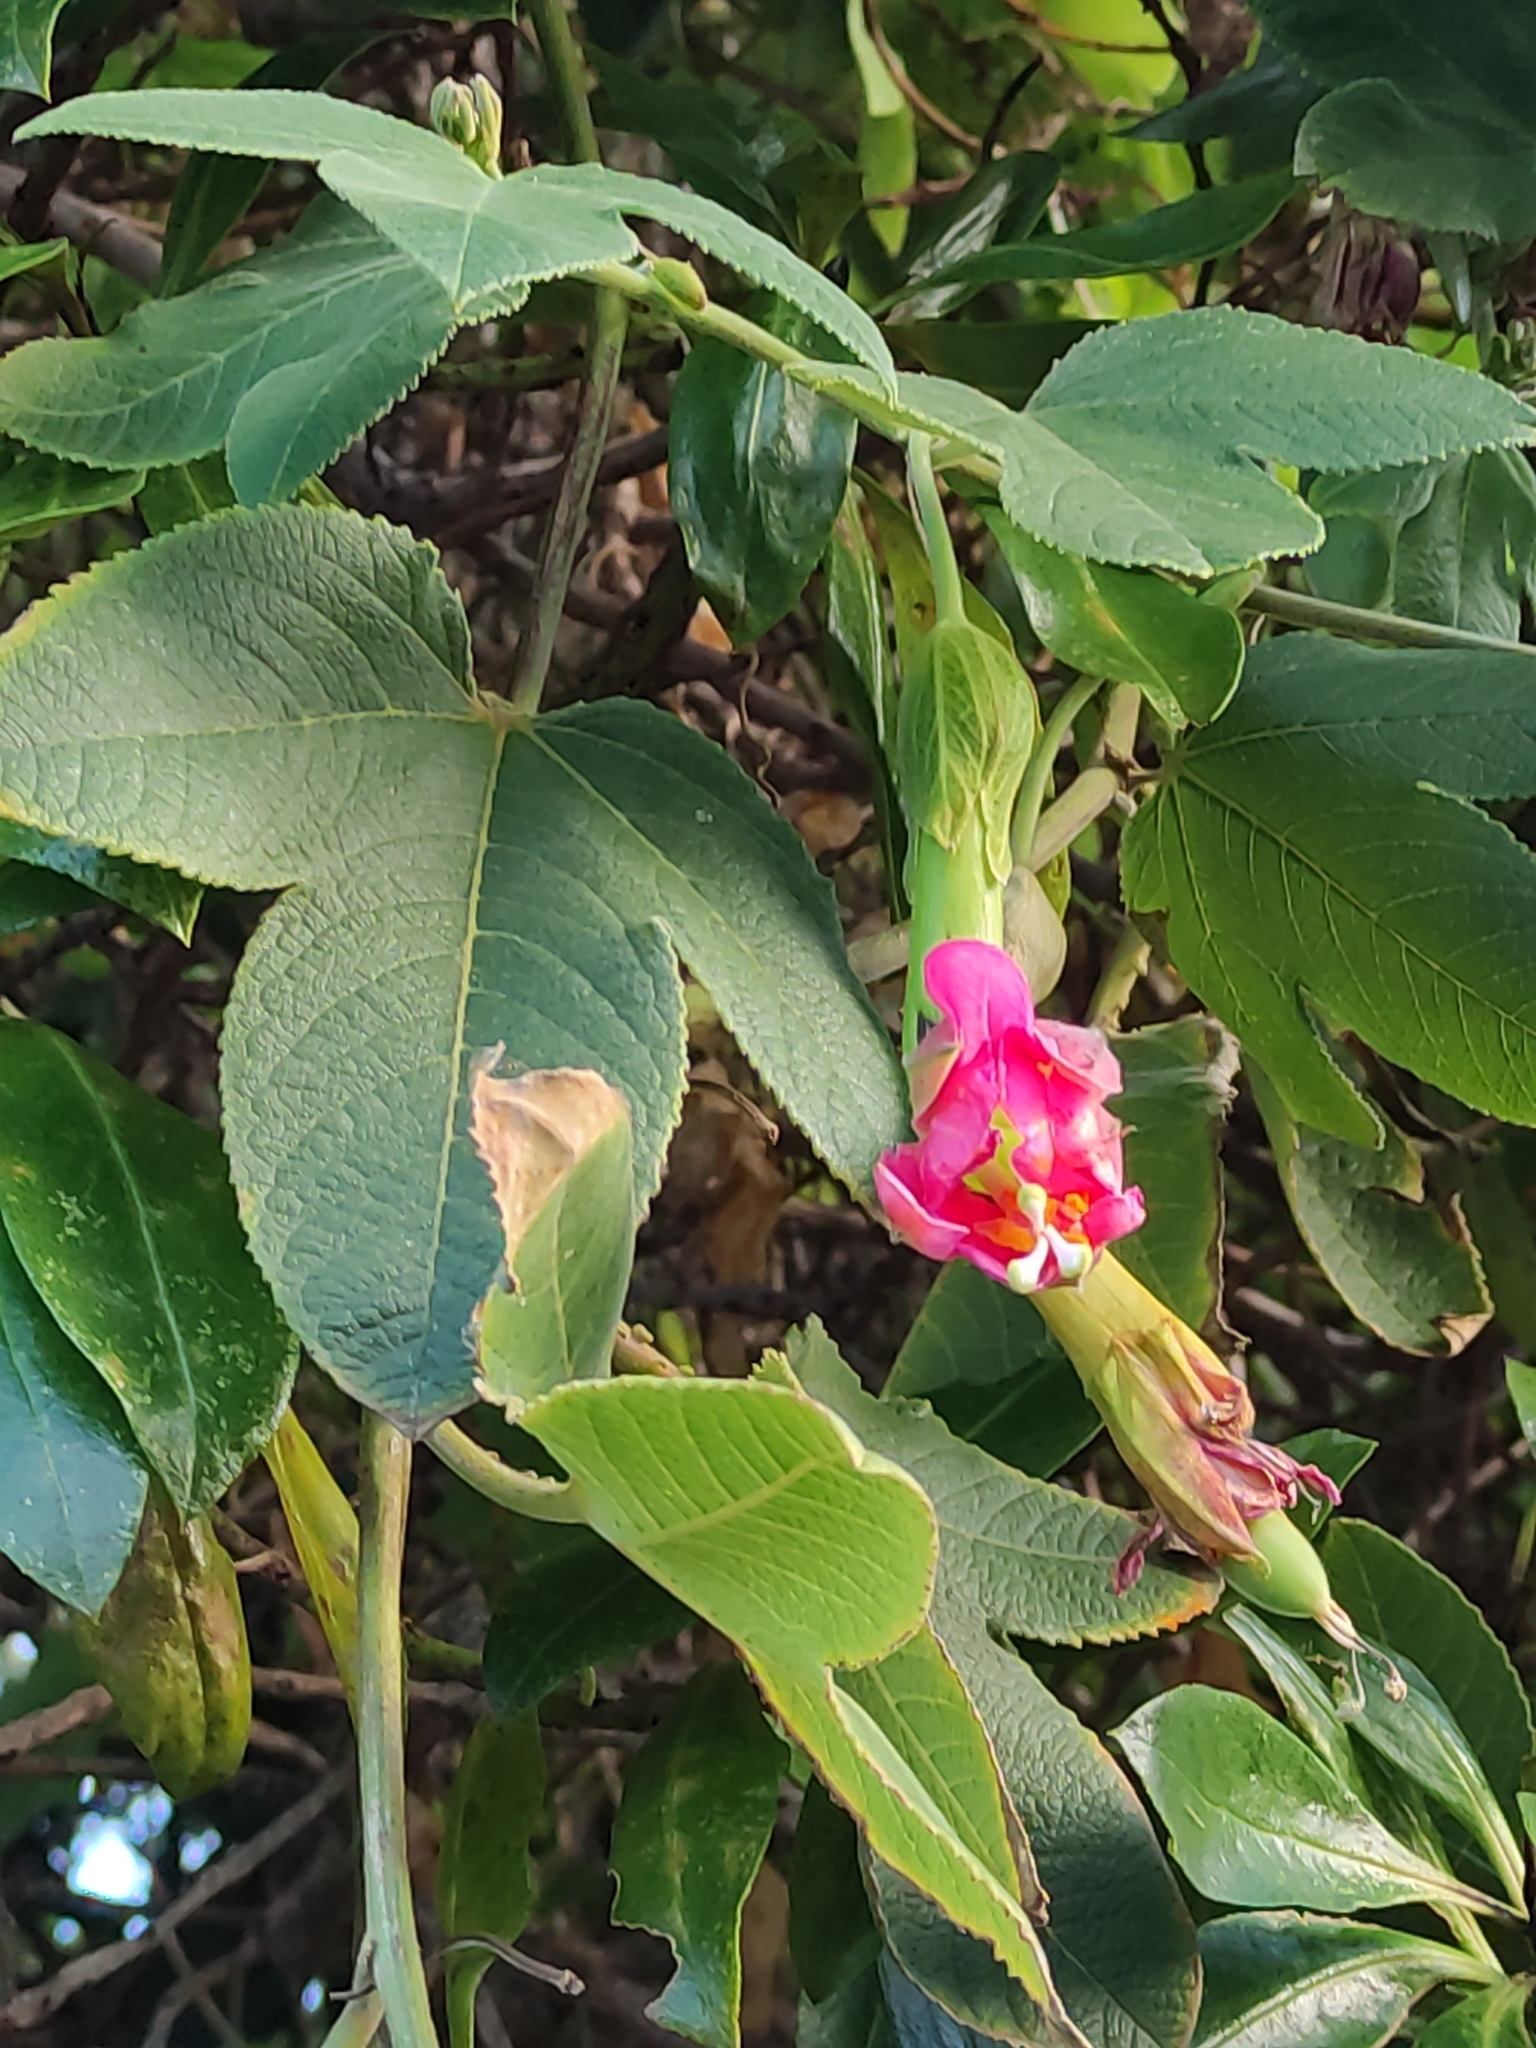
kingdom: Plantae
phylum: Tracheophyta
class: Magnoliopsida
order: Malpighiales
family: Passifloraceae
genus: Passiflora
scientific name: Passiflora tripartita
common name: Banana poka
